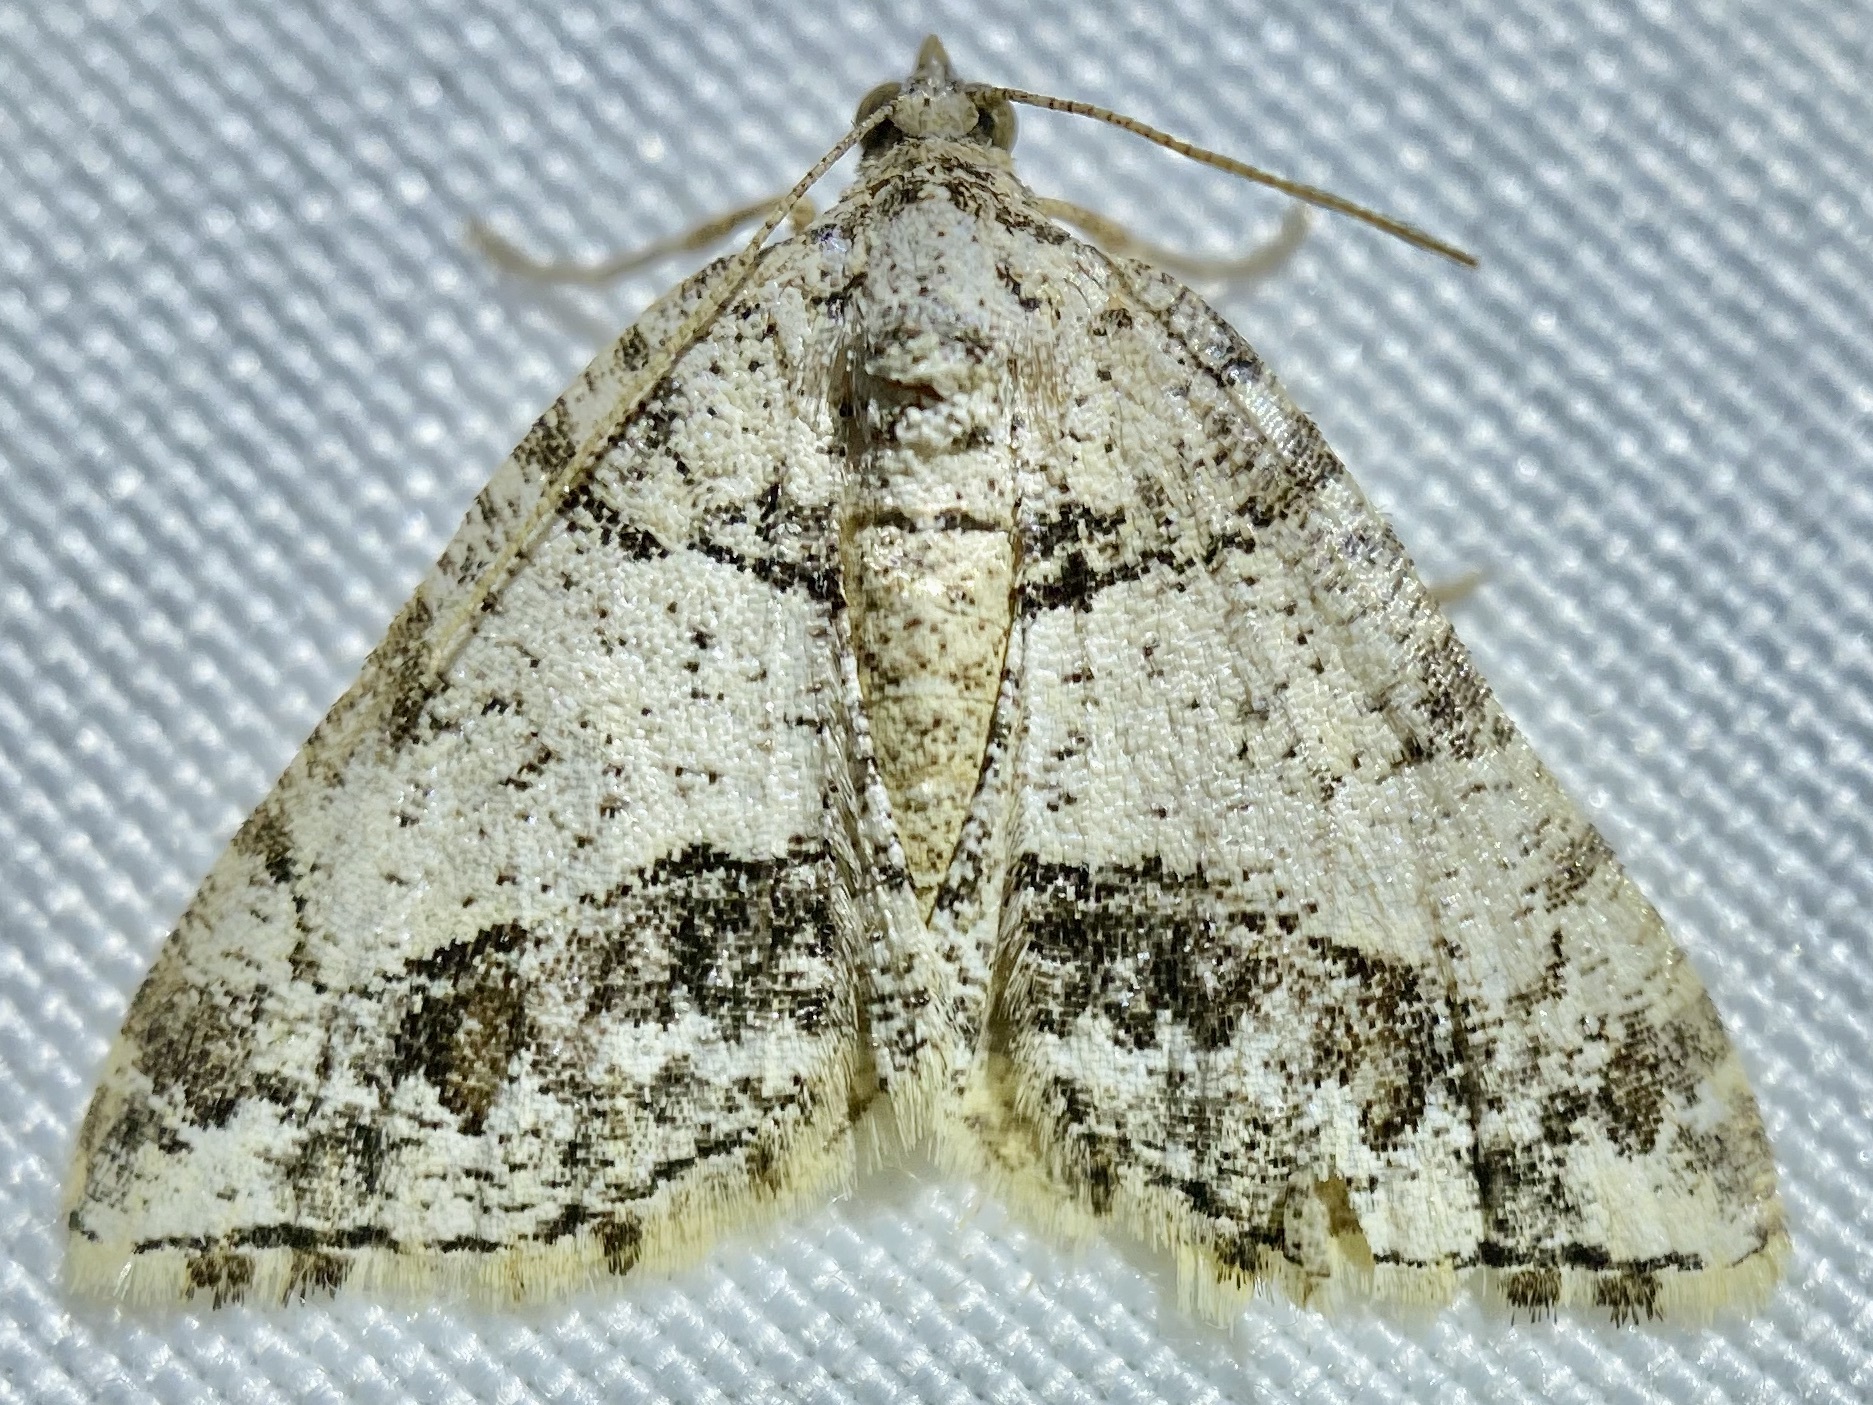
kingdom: Animalia
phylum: Arthropoda
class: Insecta
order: Lepidoptera
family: Geometridae
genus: Macaria
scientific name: Macaria deceptrix
